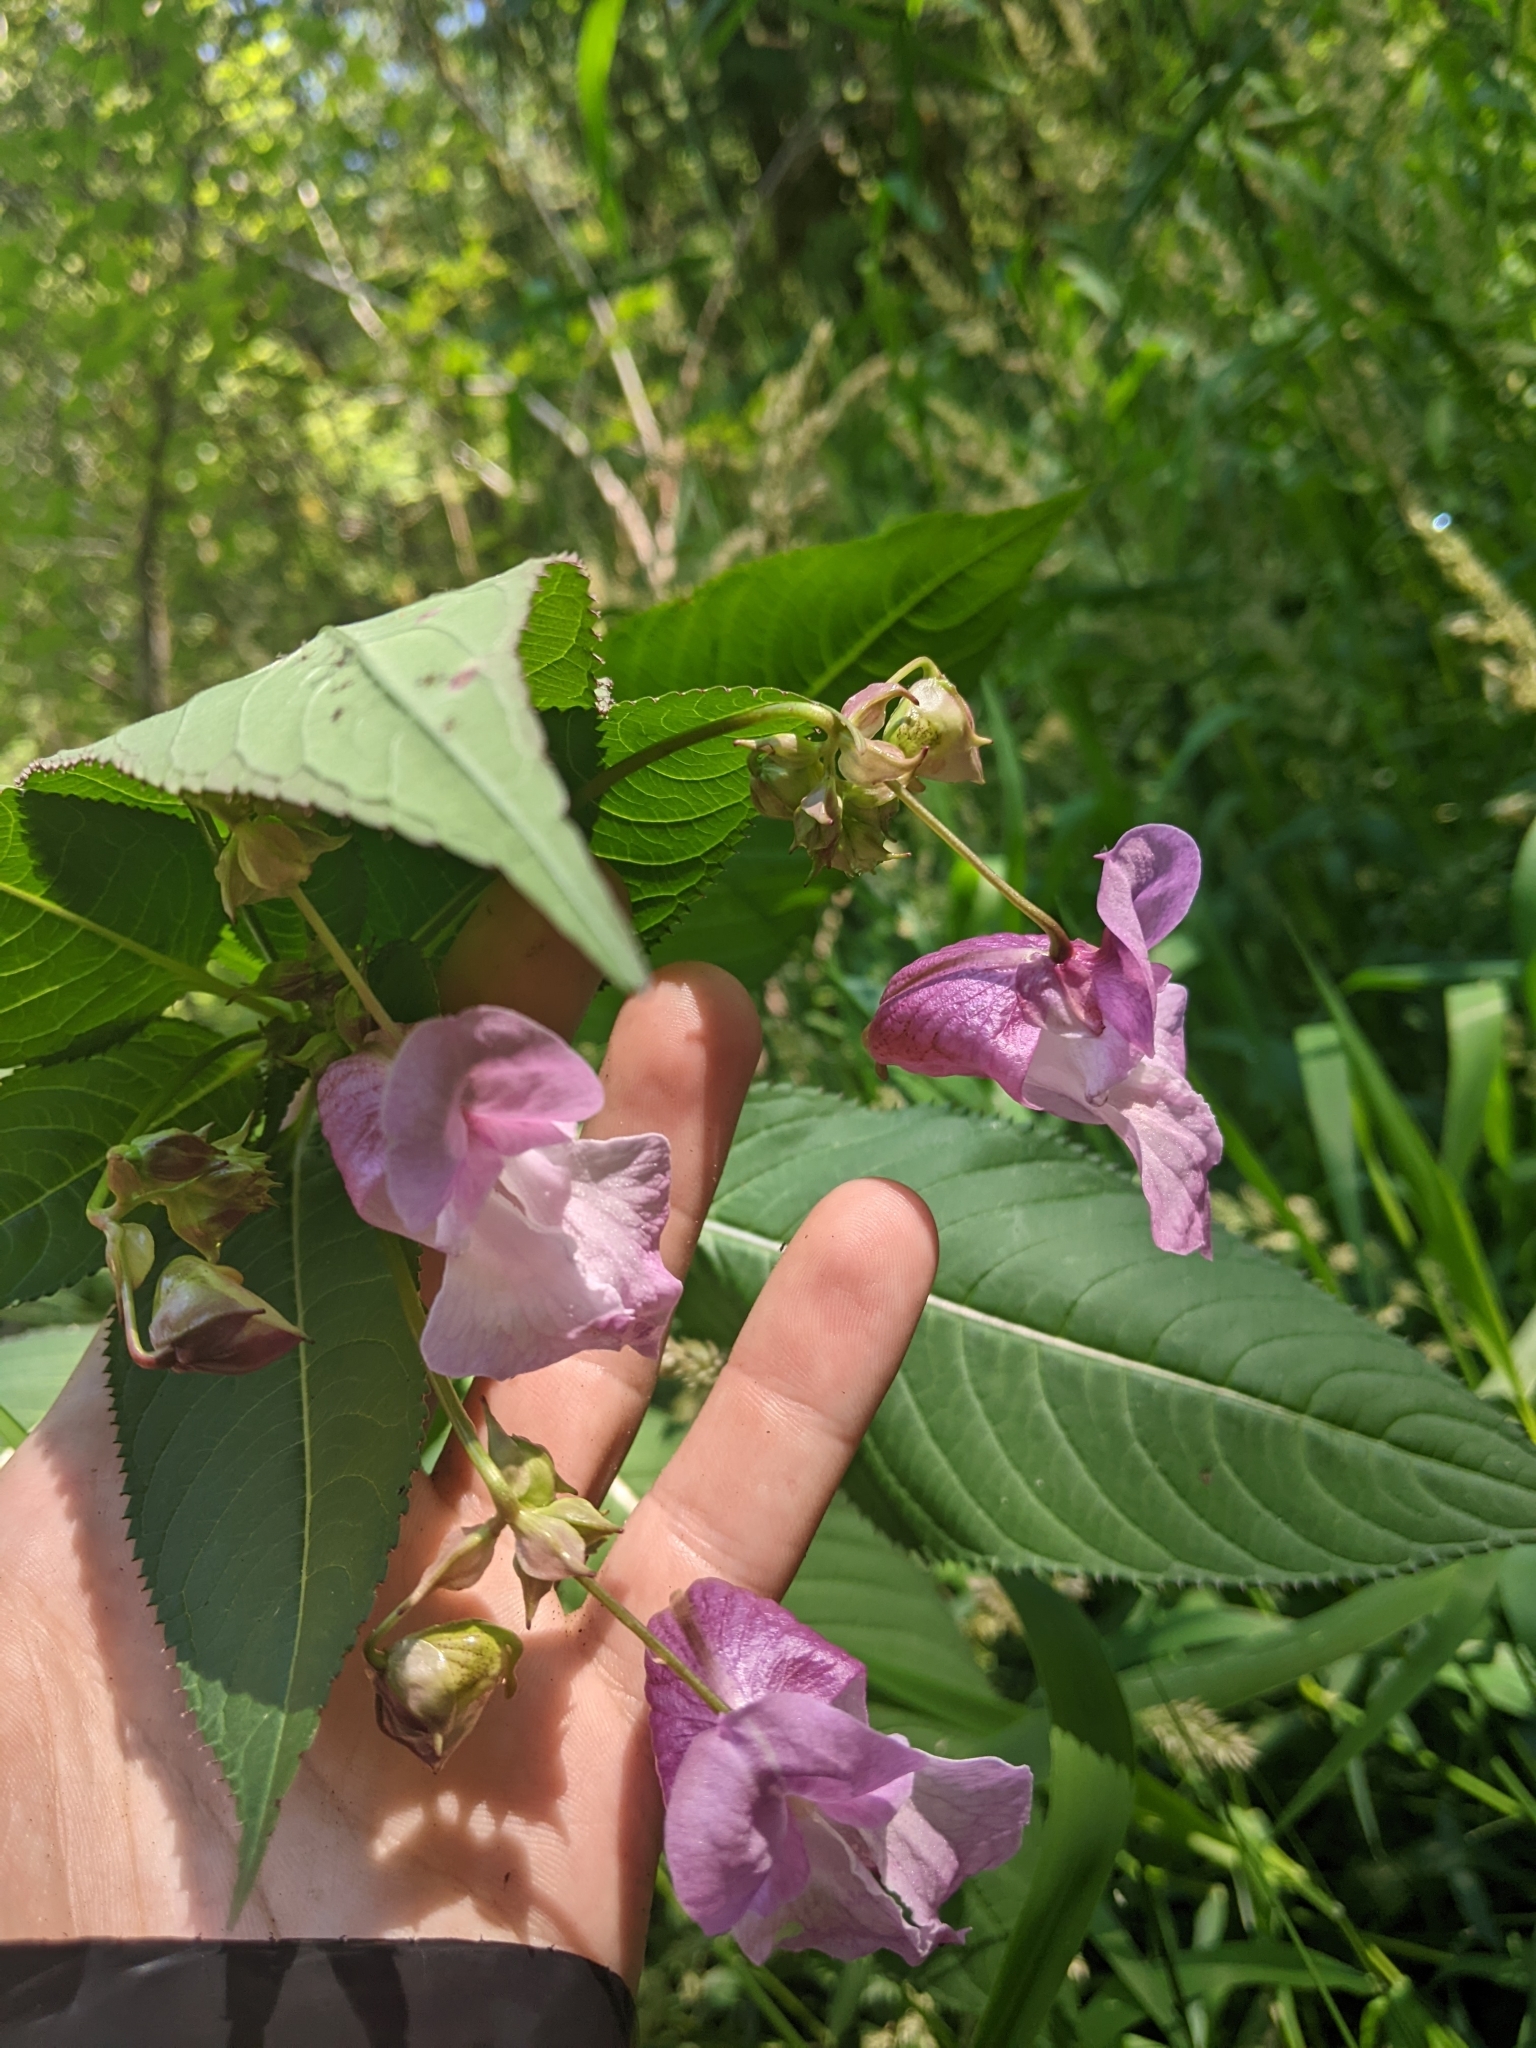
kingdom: Plantae
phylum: Tracheophyta
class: Magnoliopsida
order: Ericales
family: Balsaminaceae
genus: Impatiens
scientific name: Impatiens glandulifera
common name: Himalayan balsam
